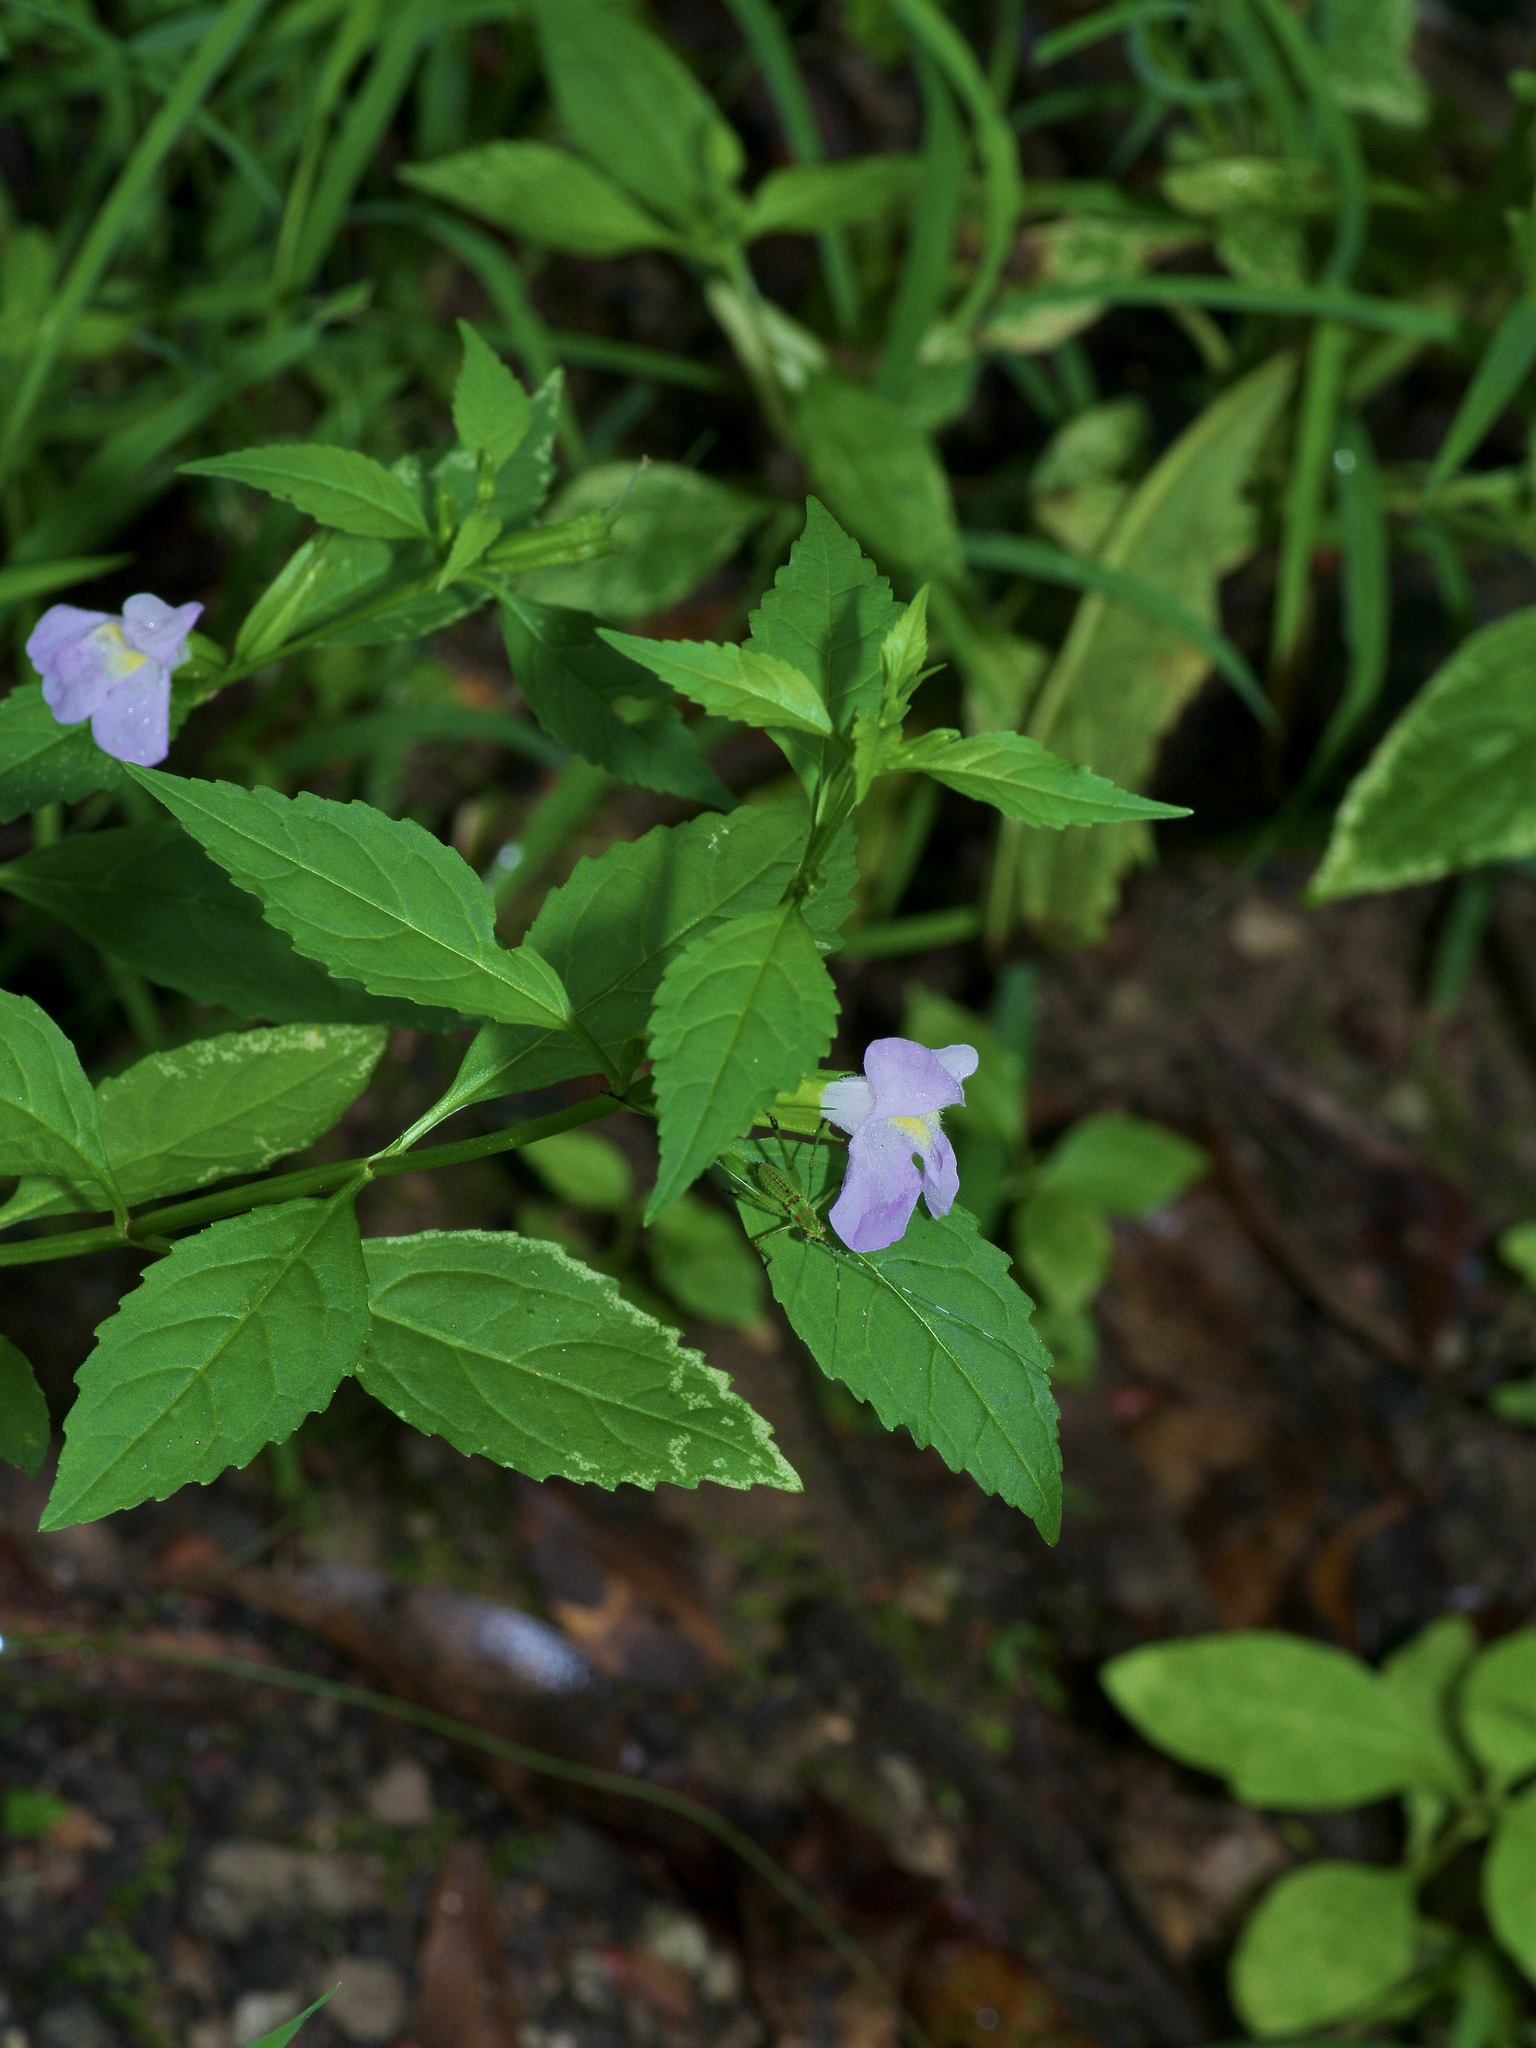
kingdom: Plantae
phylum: Tracheophyta
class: Magnoliopsida
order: Lamiales
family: Phrymaceae
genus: Mimulus
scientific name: Mimulus alatus
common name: Sharp-wing monkey-flower
